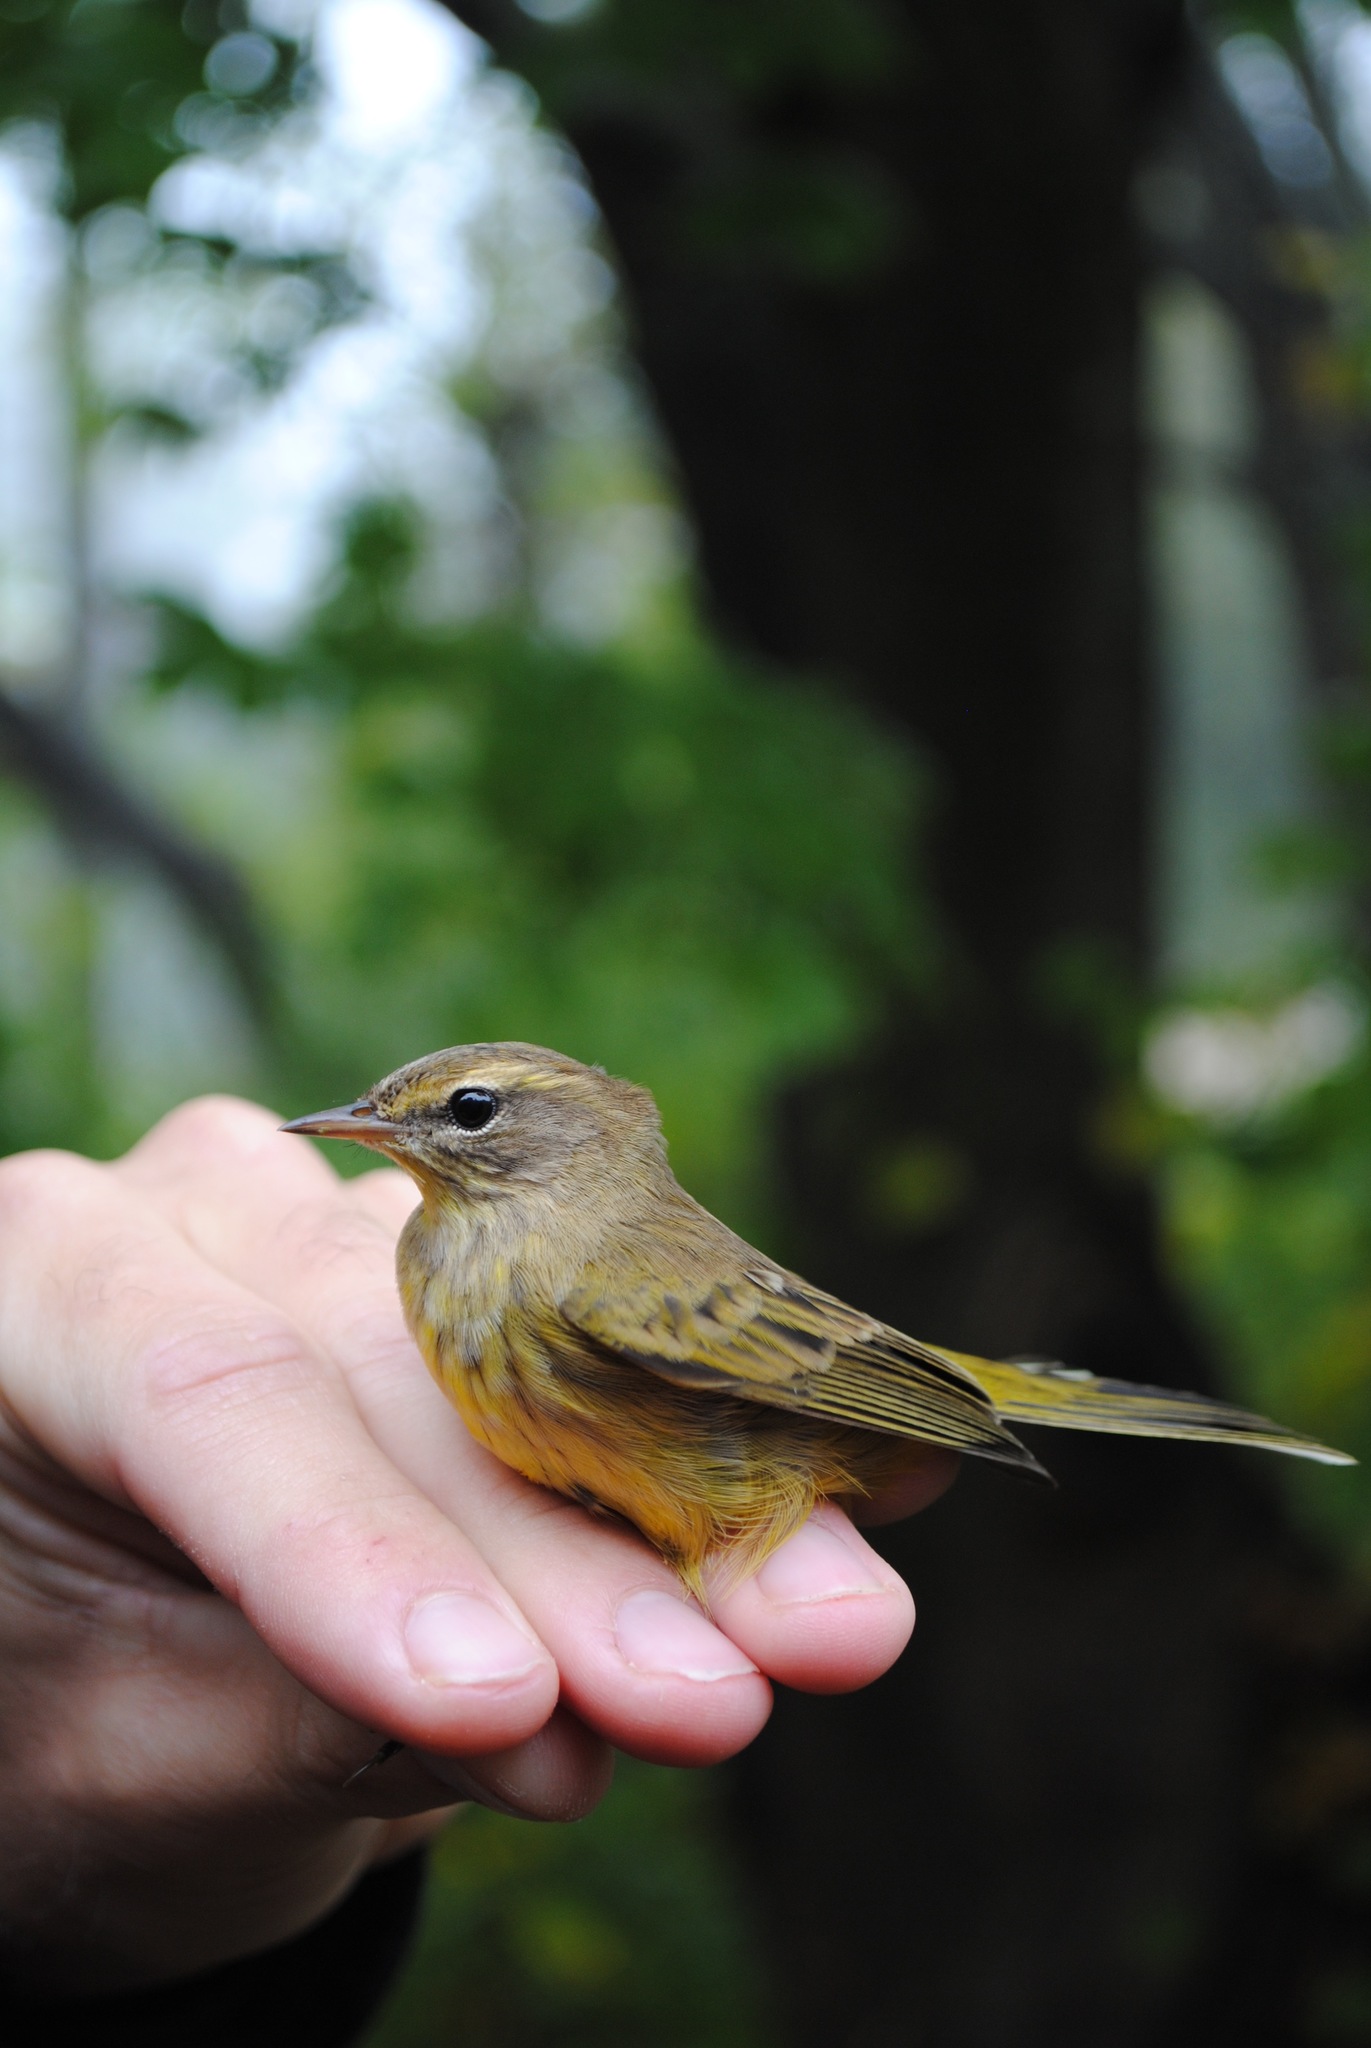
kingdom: Animalia
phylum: Chordata
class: Aves
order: Passeriformes
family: Parulidae
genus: Setophaga
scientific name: Setophaga palmarum
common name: Palm warbler
